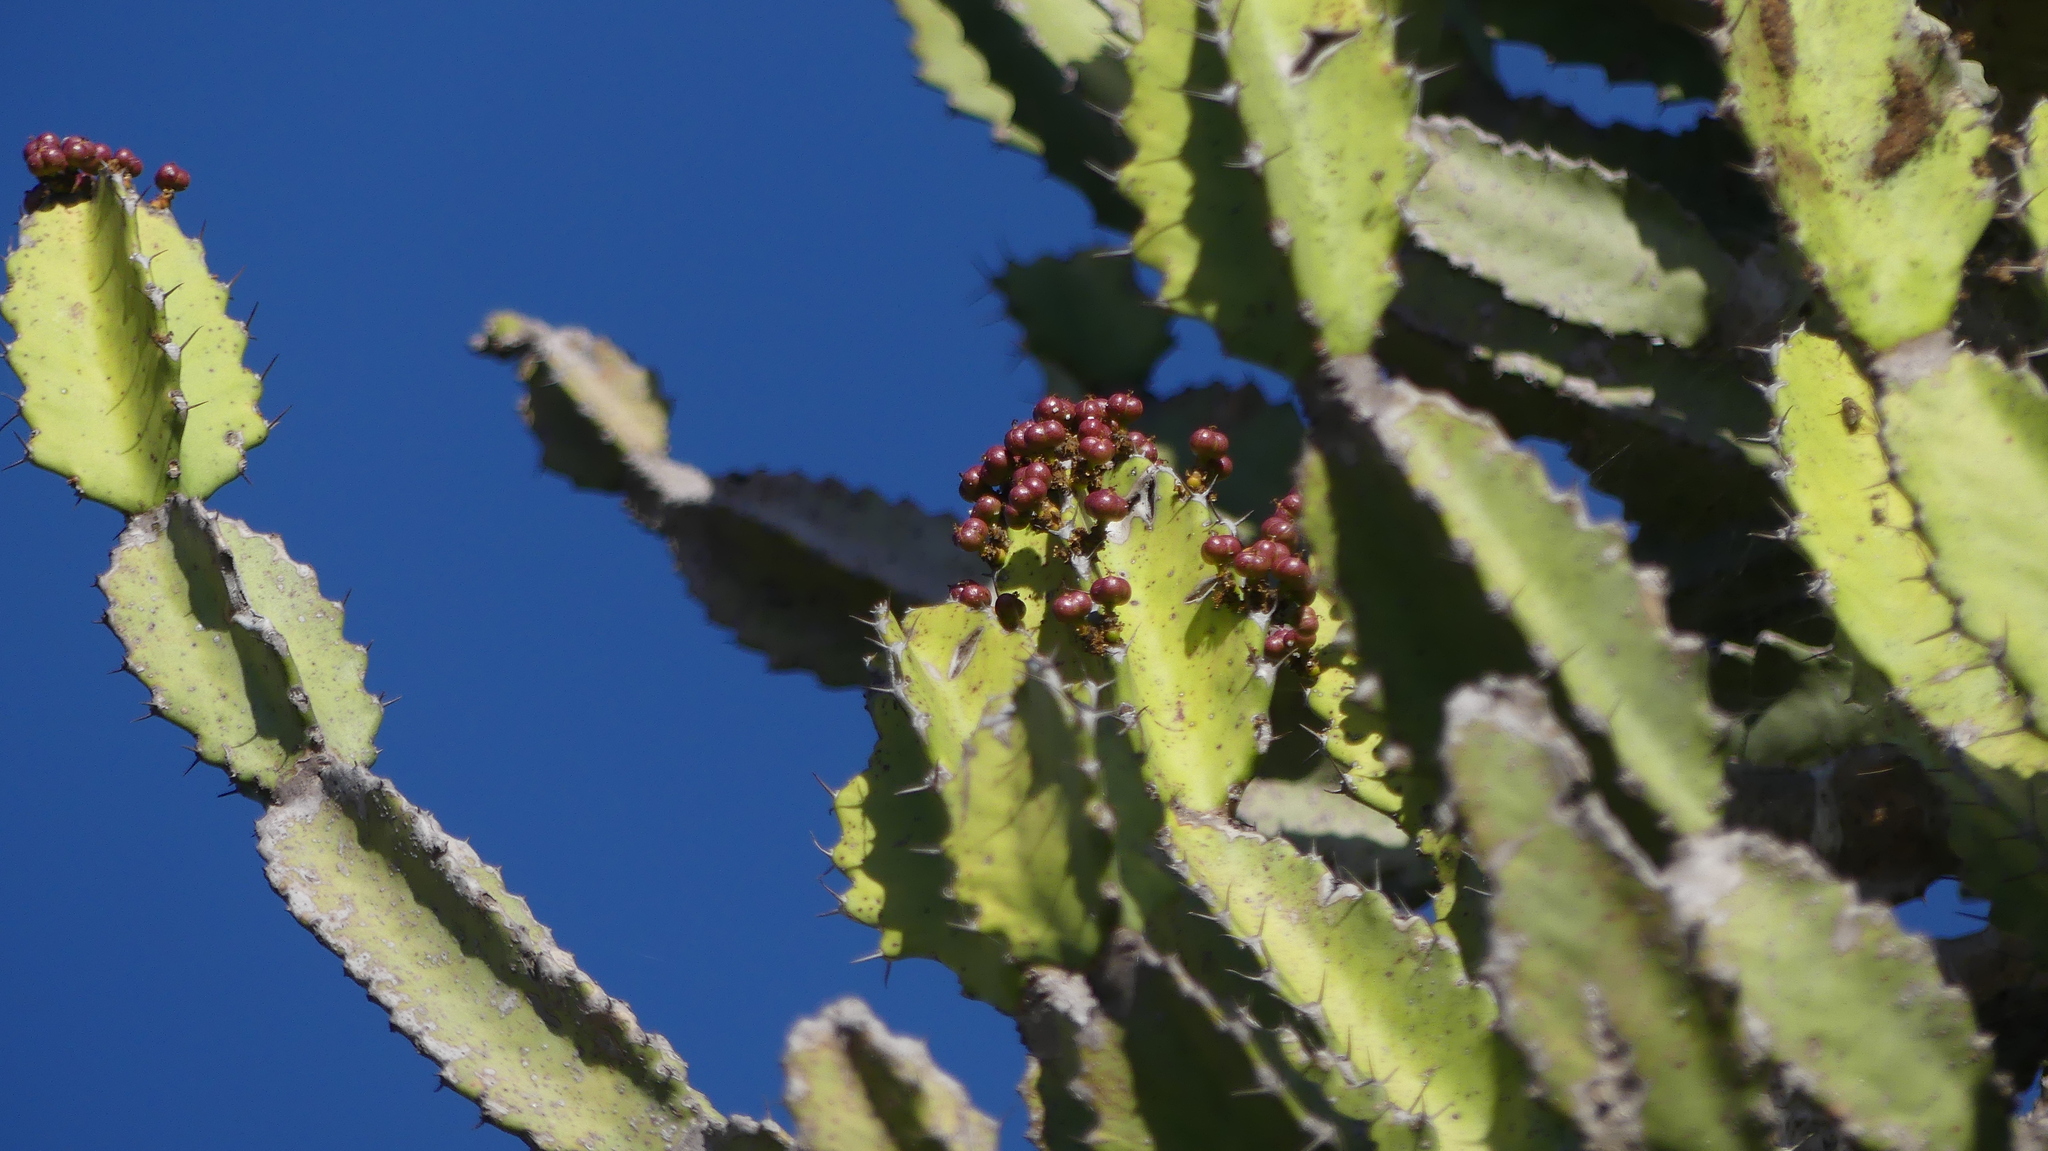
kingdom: Plantae
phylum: Tracheophyta
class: Magnoliopsida
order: Malpighiales
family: Euphorbiaceae
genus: Euphorbia
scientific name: Euphorbia triangularis
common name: Chandelier tree
